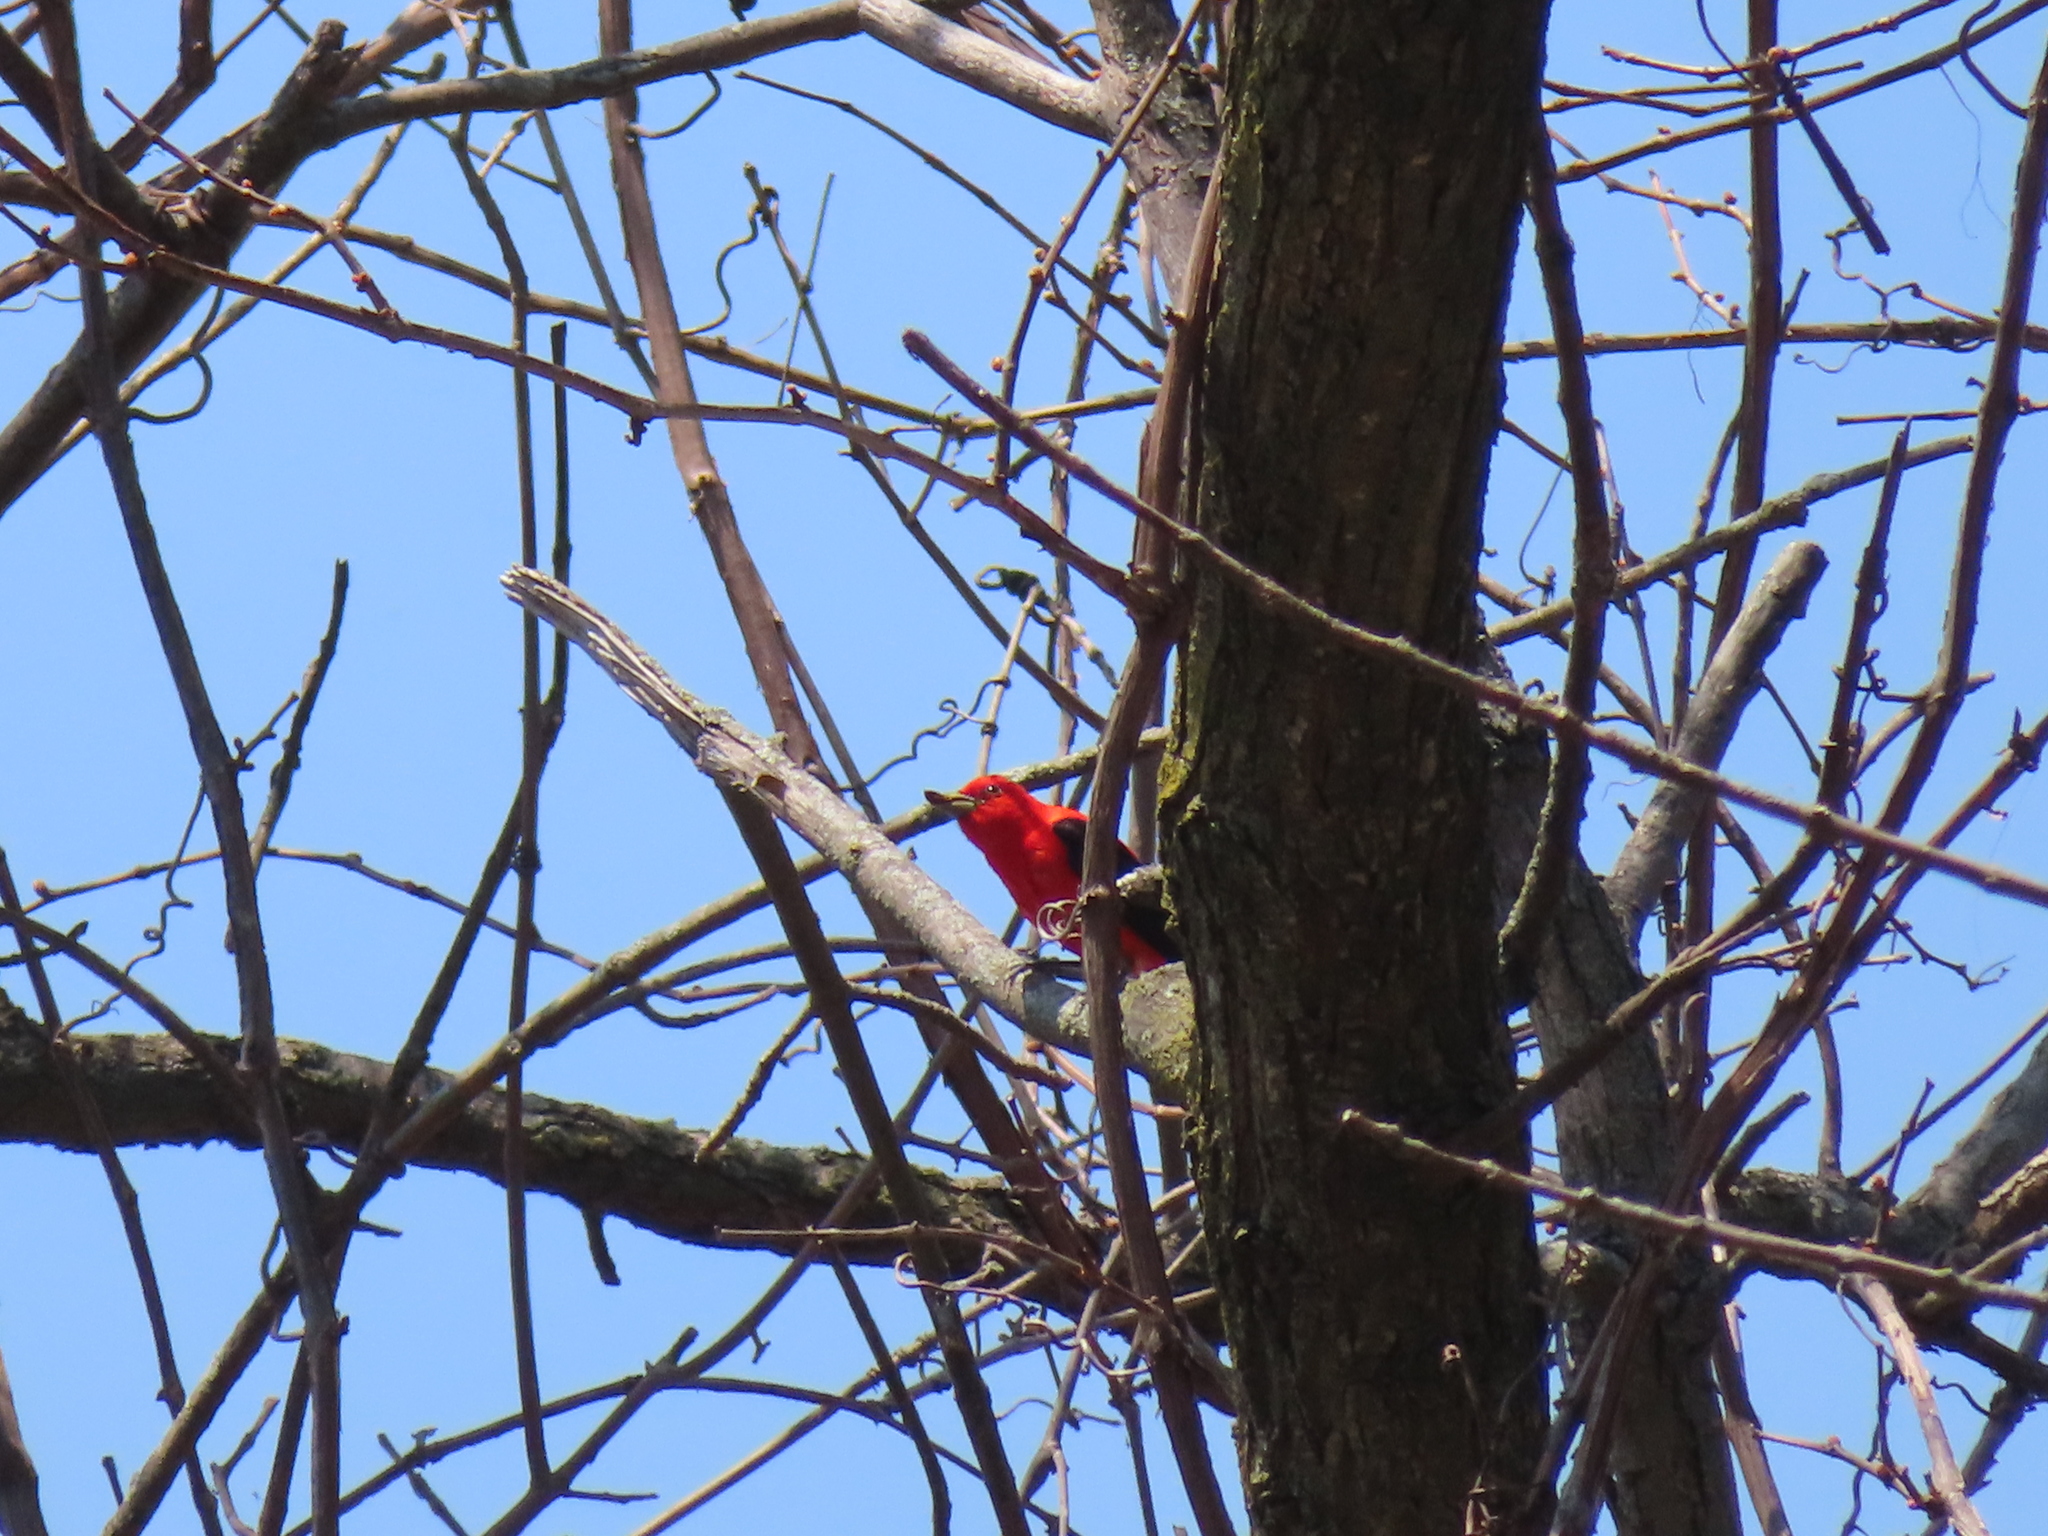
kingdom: Animalia
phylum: Chordata
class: Aves
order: Passeriformes
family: Cardinalidae
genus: Piranga
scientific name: Piranga olivacea
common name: Scarlet tanager
